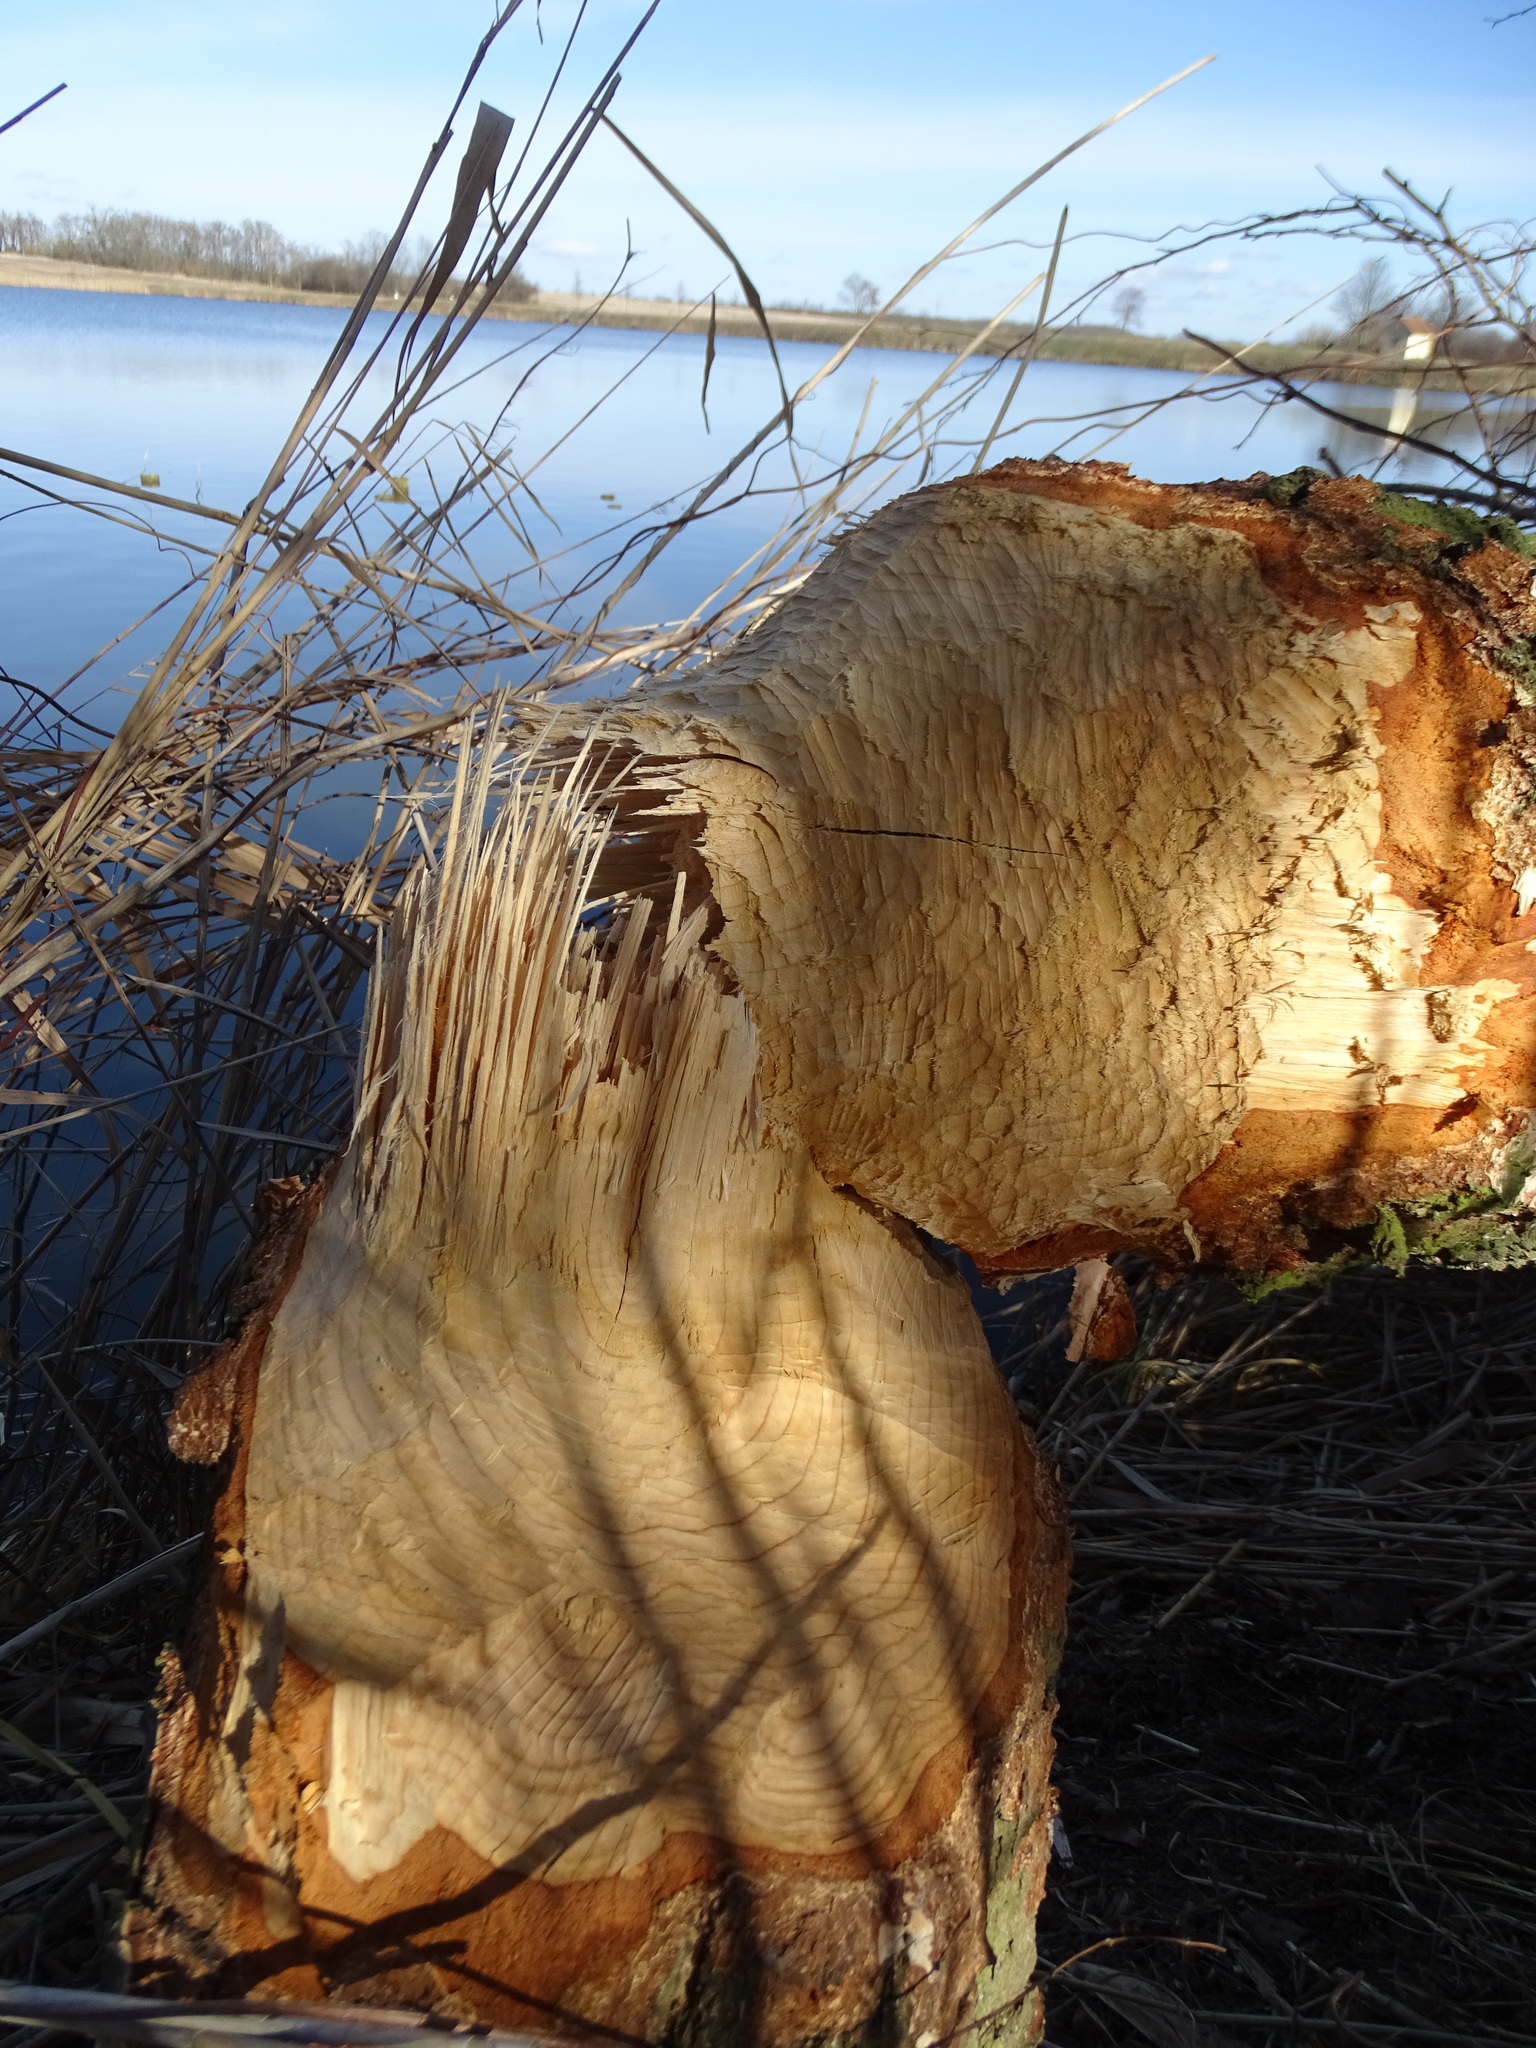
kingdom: Animalia
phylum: Chordata
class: Mammalia
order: Rodentia
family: Castoridae
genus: Castor
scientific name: Castor fiber
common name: Eurasian beaver
